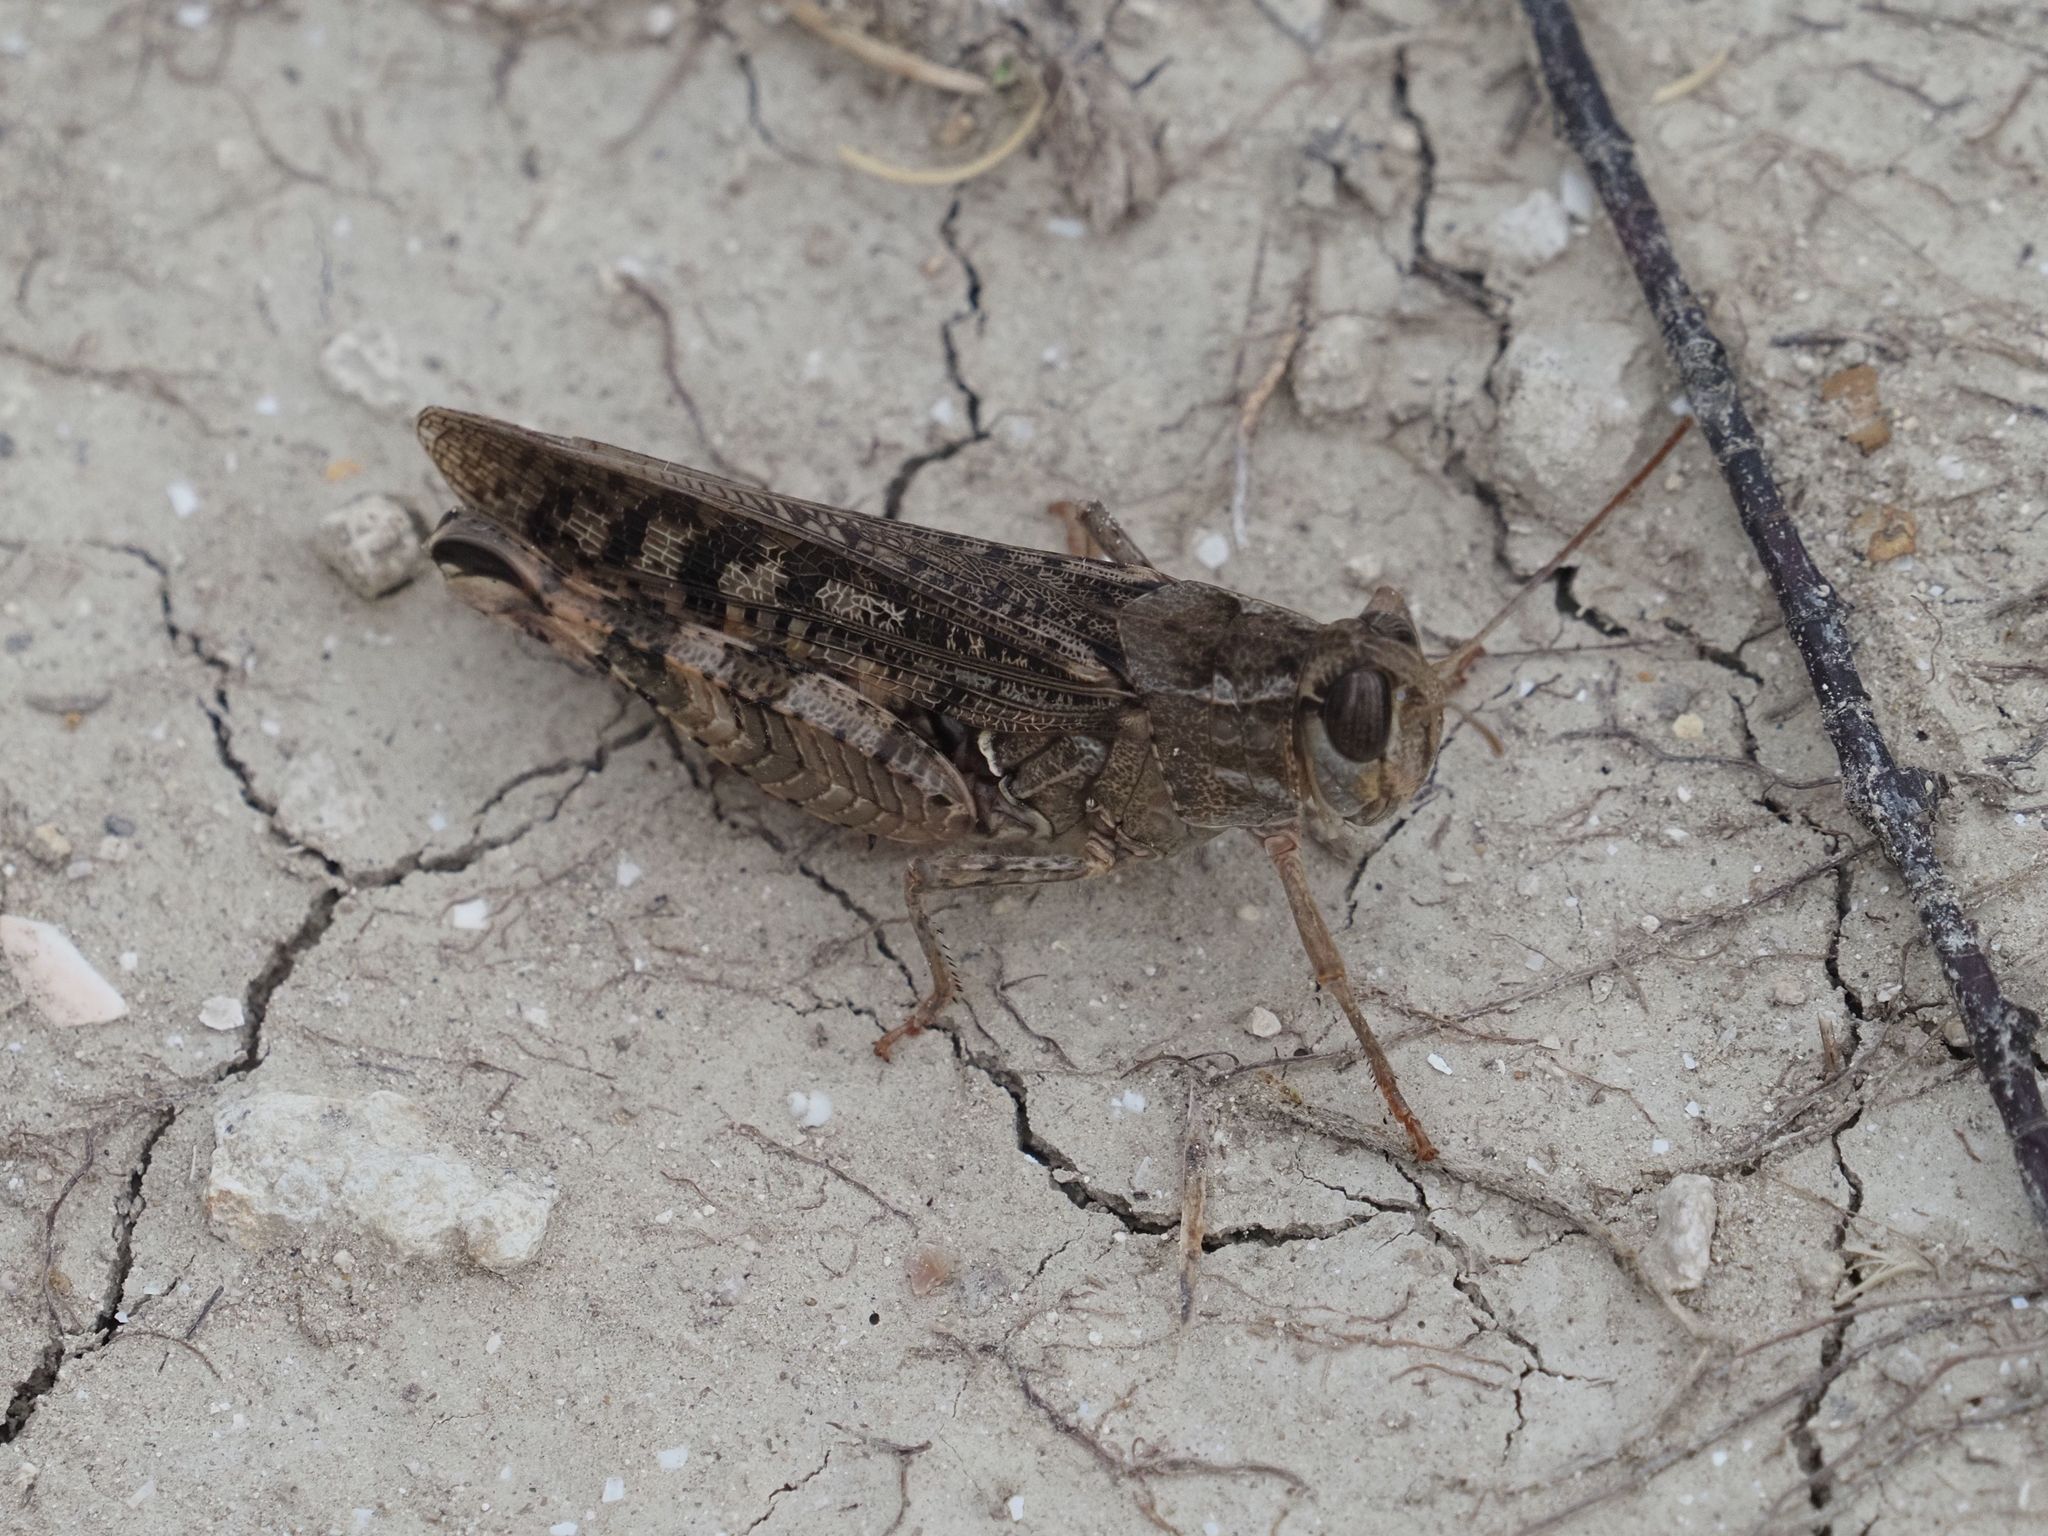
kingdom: Animalia
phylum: Arthropoda
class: Insecta
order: Orthoptera
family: Acrididae
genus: Calliptamus
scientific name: Calliptamus italicus
